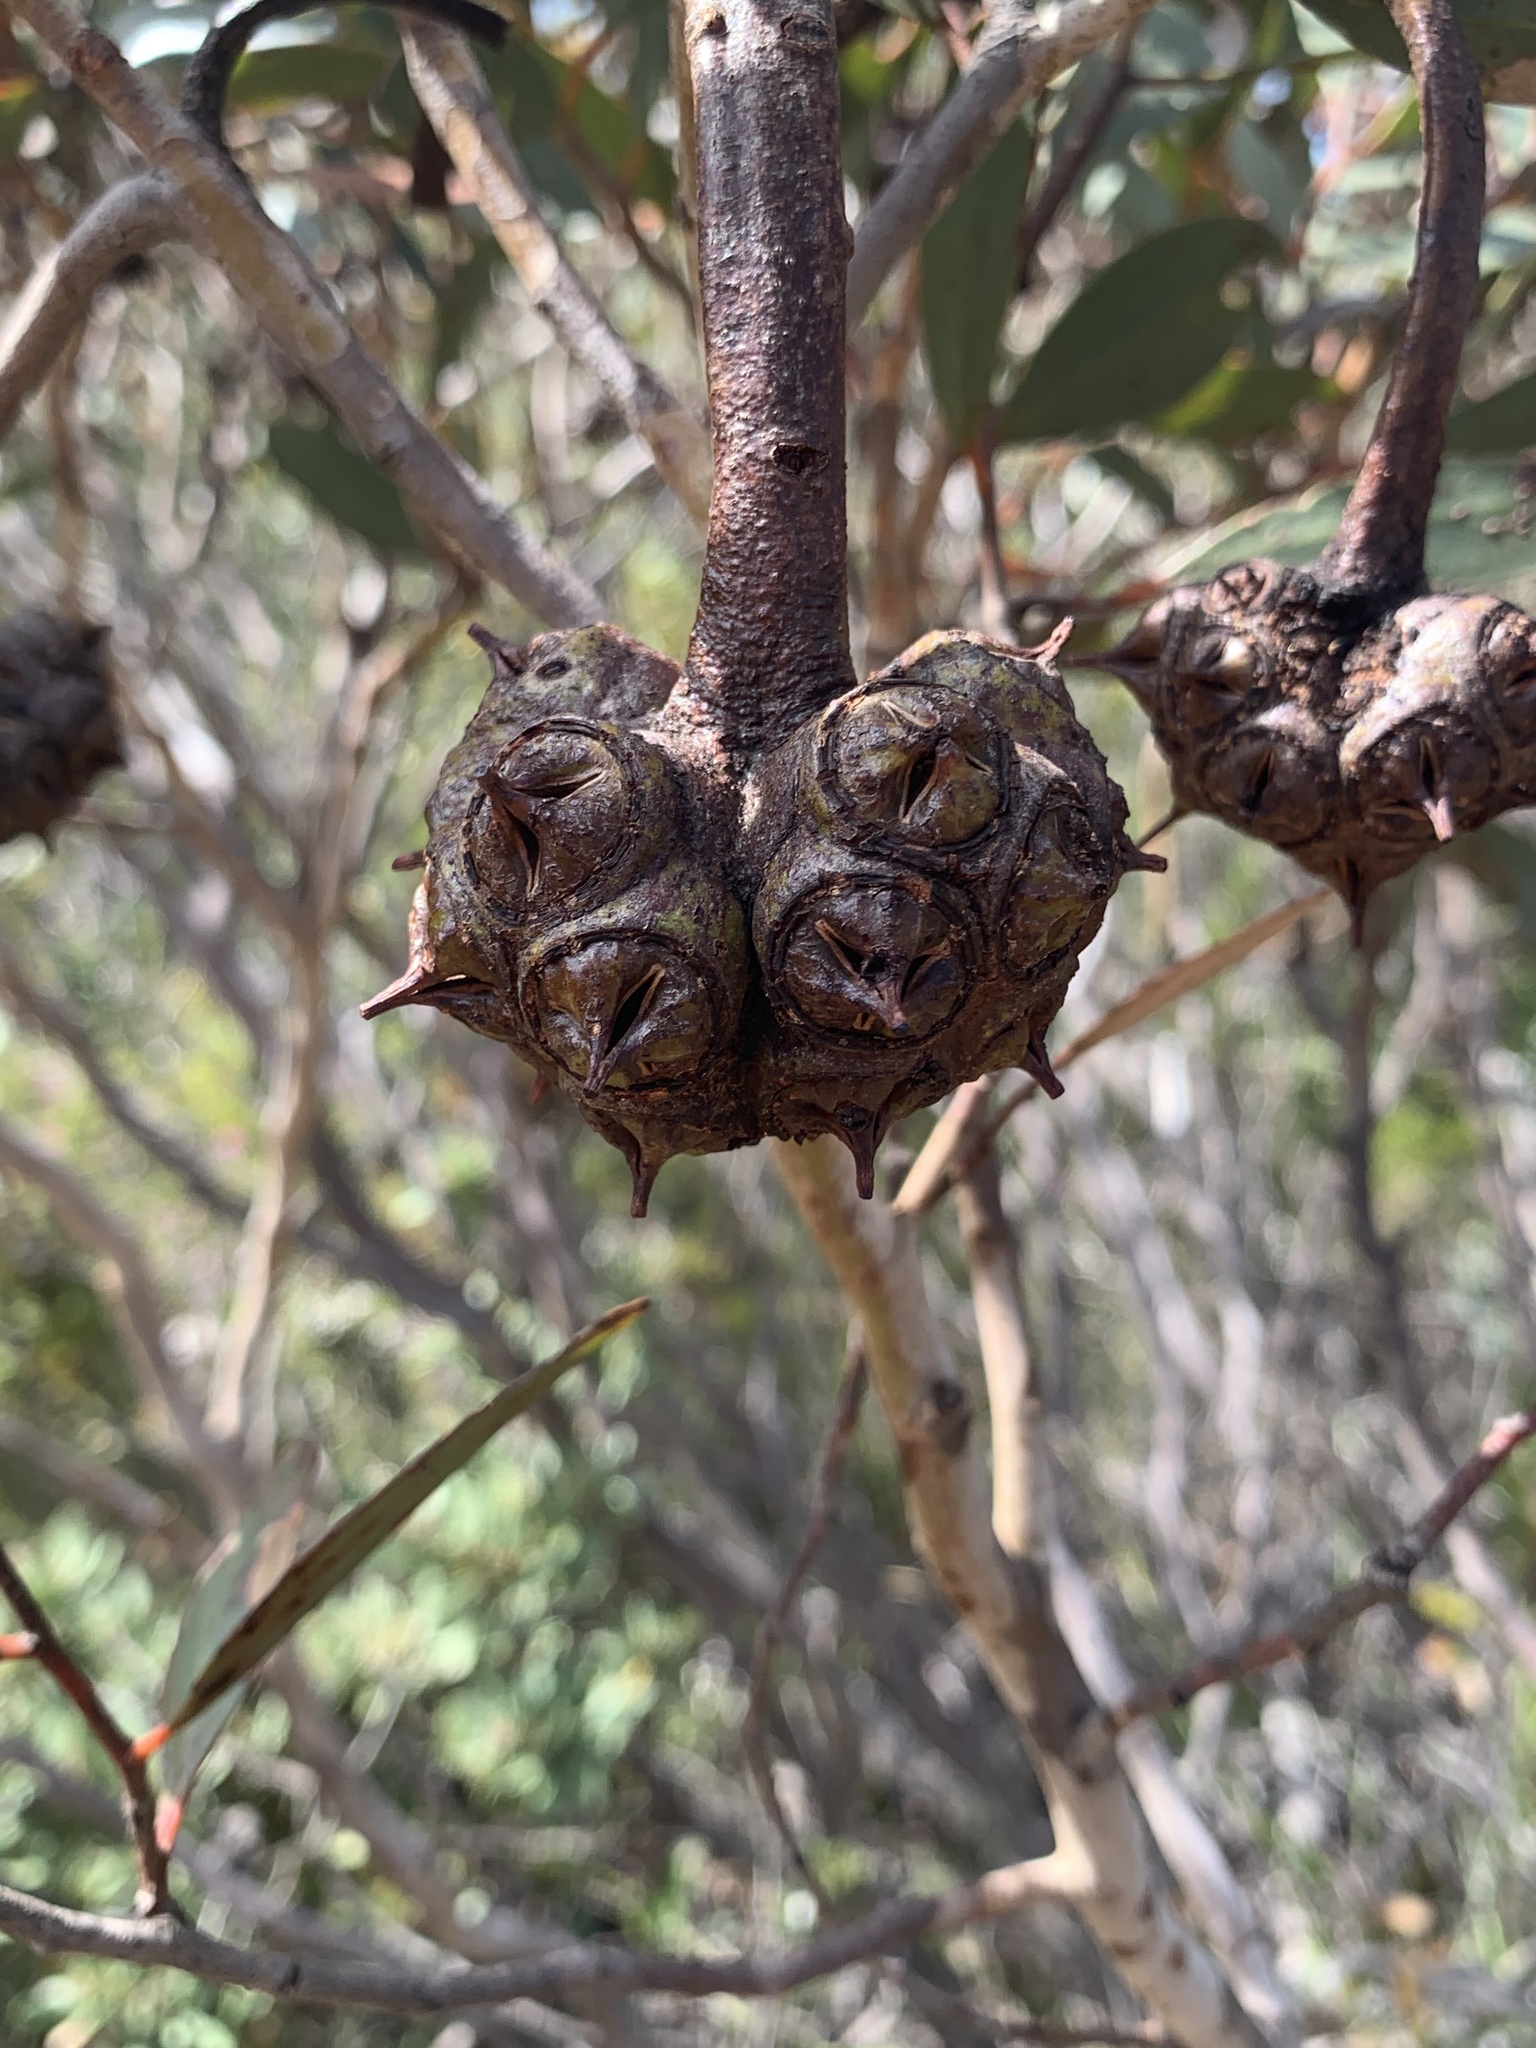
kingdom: Plantae
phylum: Tracheophyta
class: Magnoliopsida
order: Myrtales
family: Myrtaceae
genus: Eucalyptus
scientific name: Eucalyptus lehmannii
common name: Bushy yate
